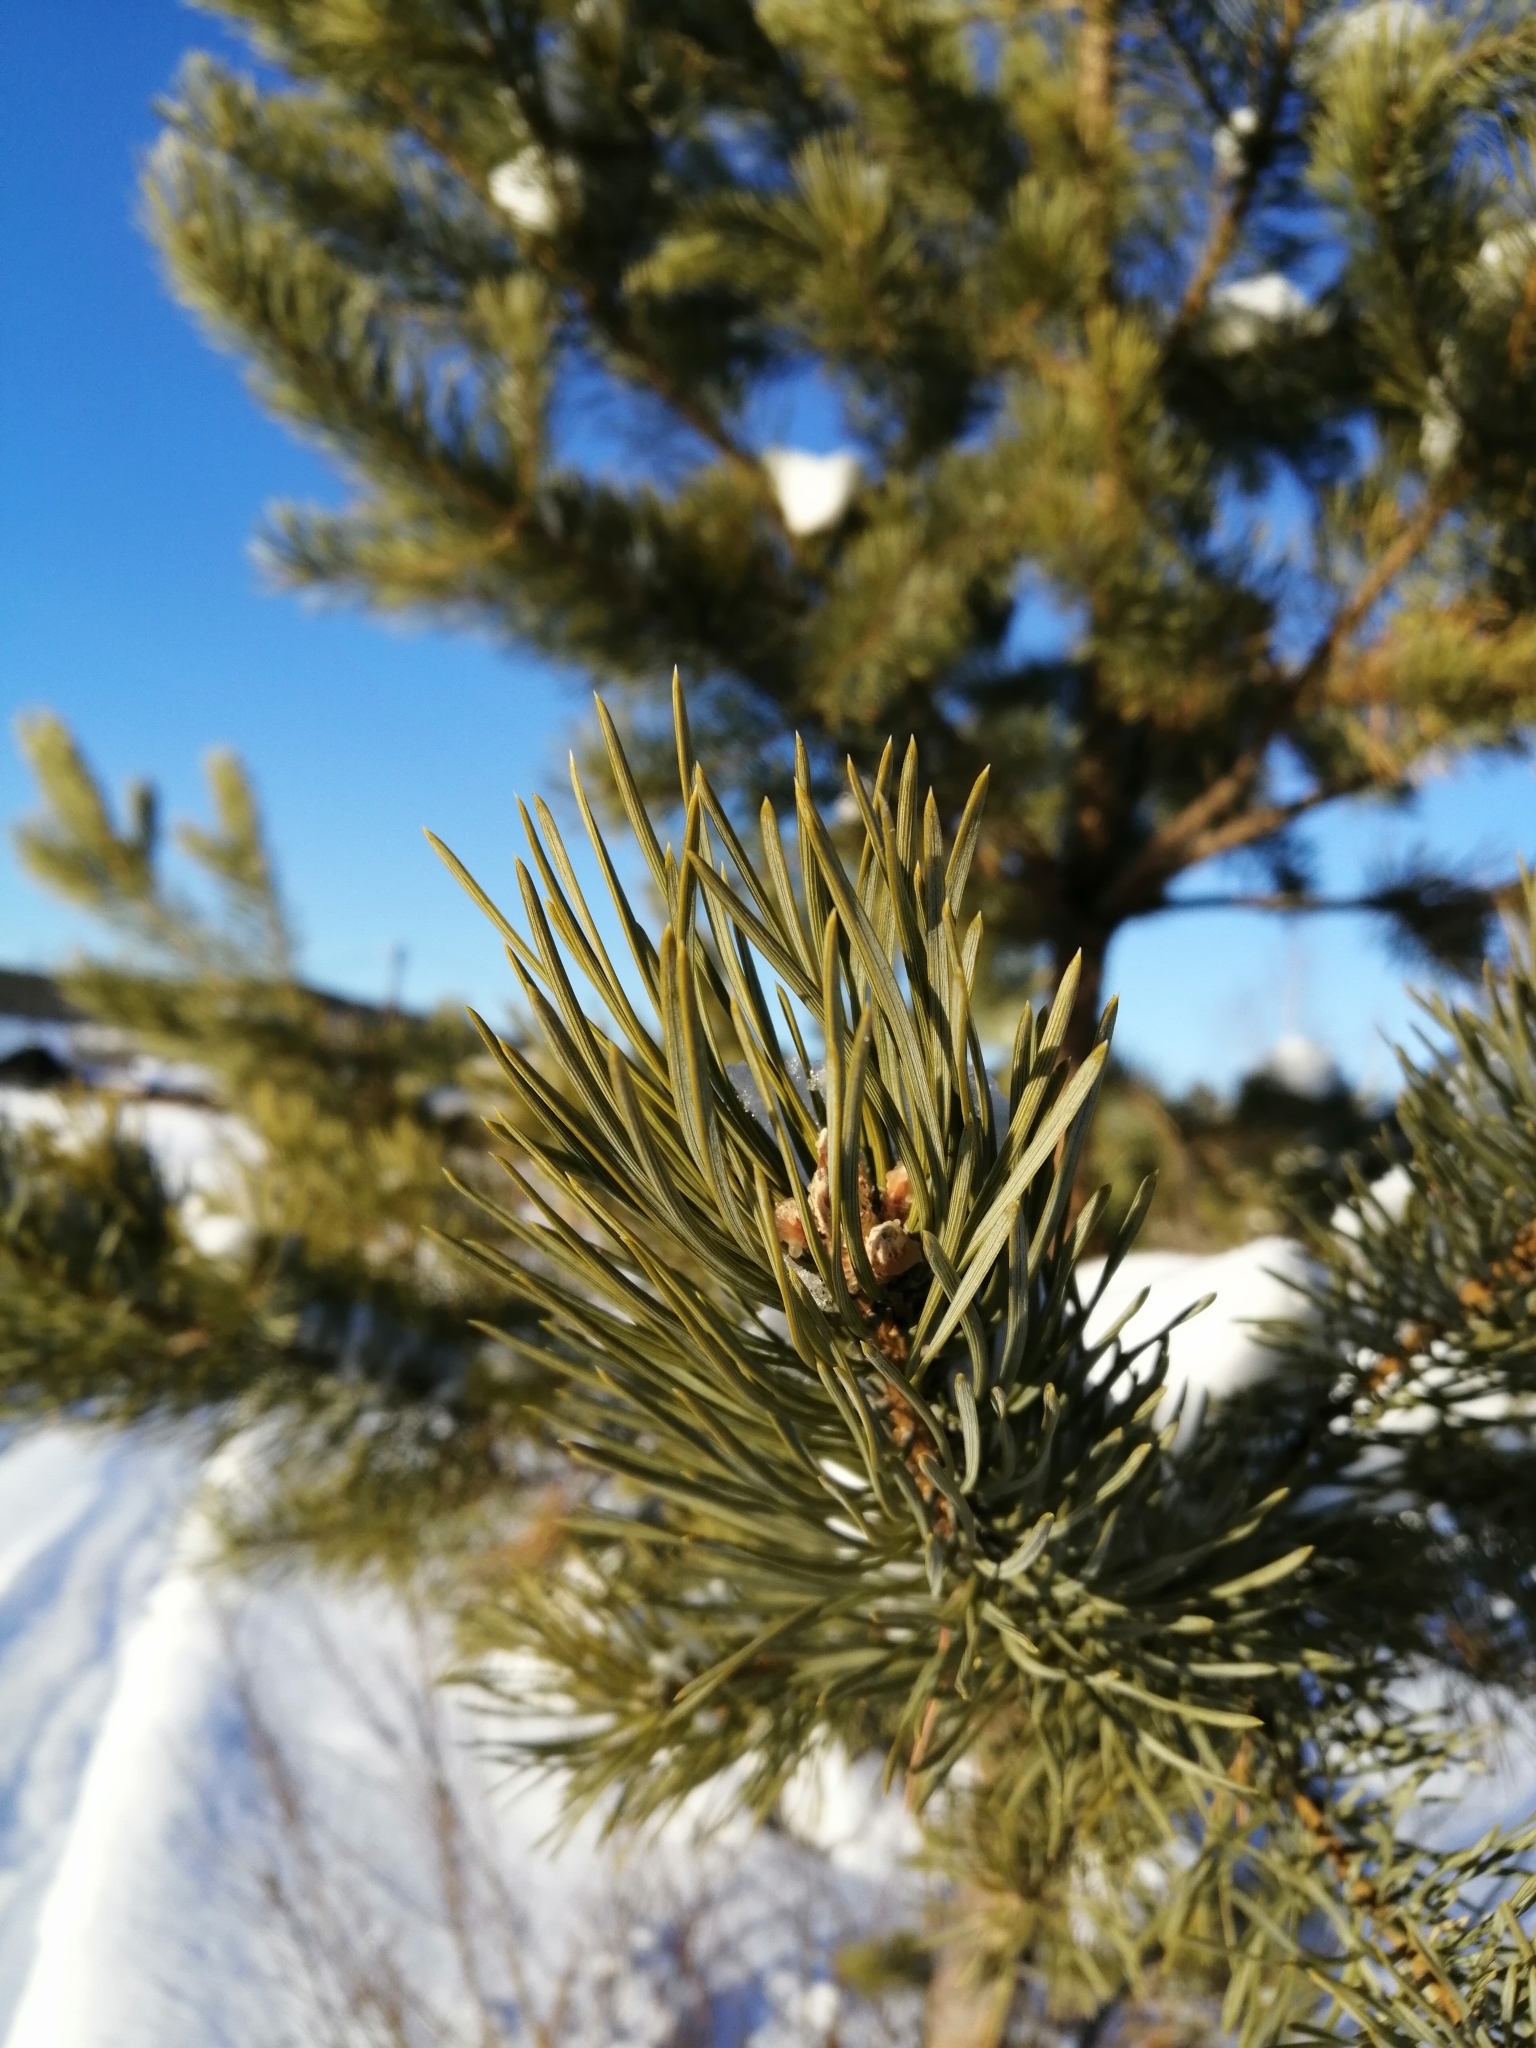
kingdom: Plantae
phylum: Tracheophyta
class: Pinopsida
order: Pinales
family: Pinaceae
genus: Pinus
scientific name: Pinus sylvestris
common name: Scots pine
